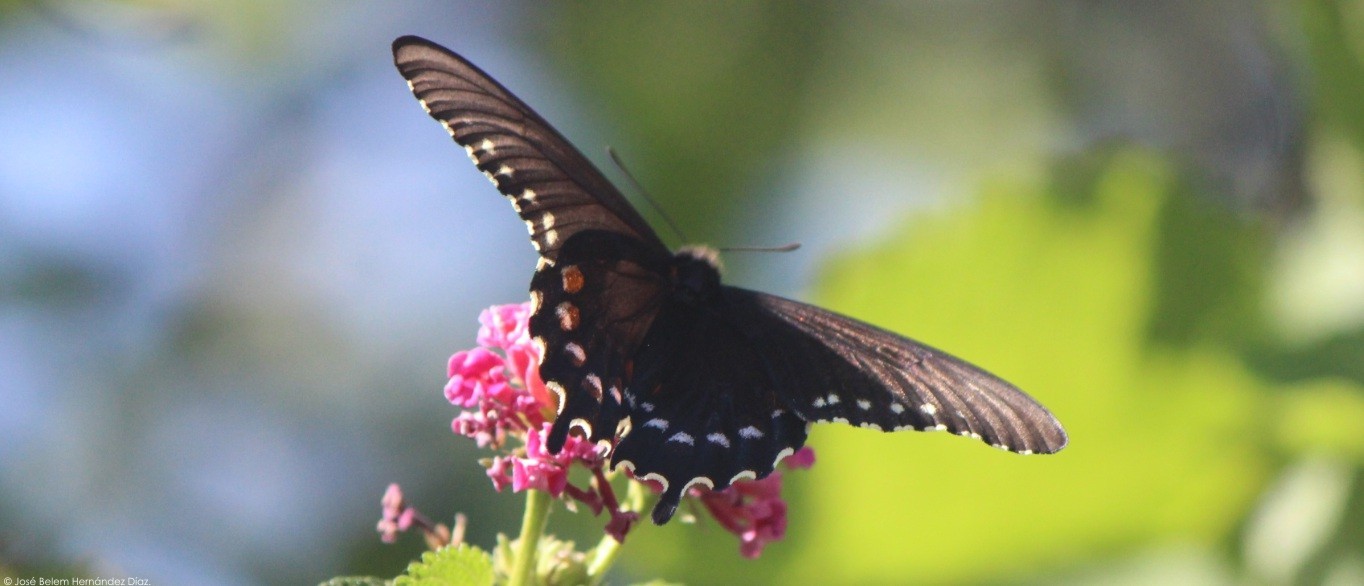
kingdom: Animalia
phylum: Arthropoda
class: Insecta
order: Lepidoptera
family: Papilionidae
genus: Battus
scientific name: Battus philenor
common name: Pipevine swallowtail
